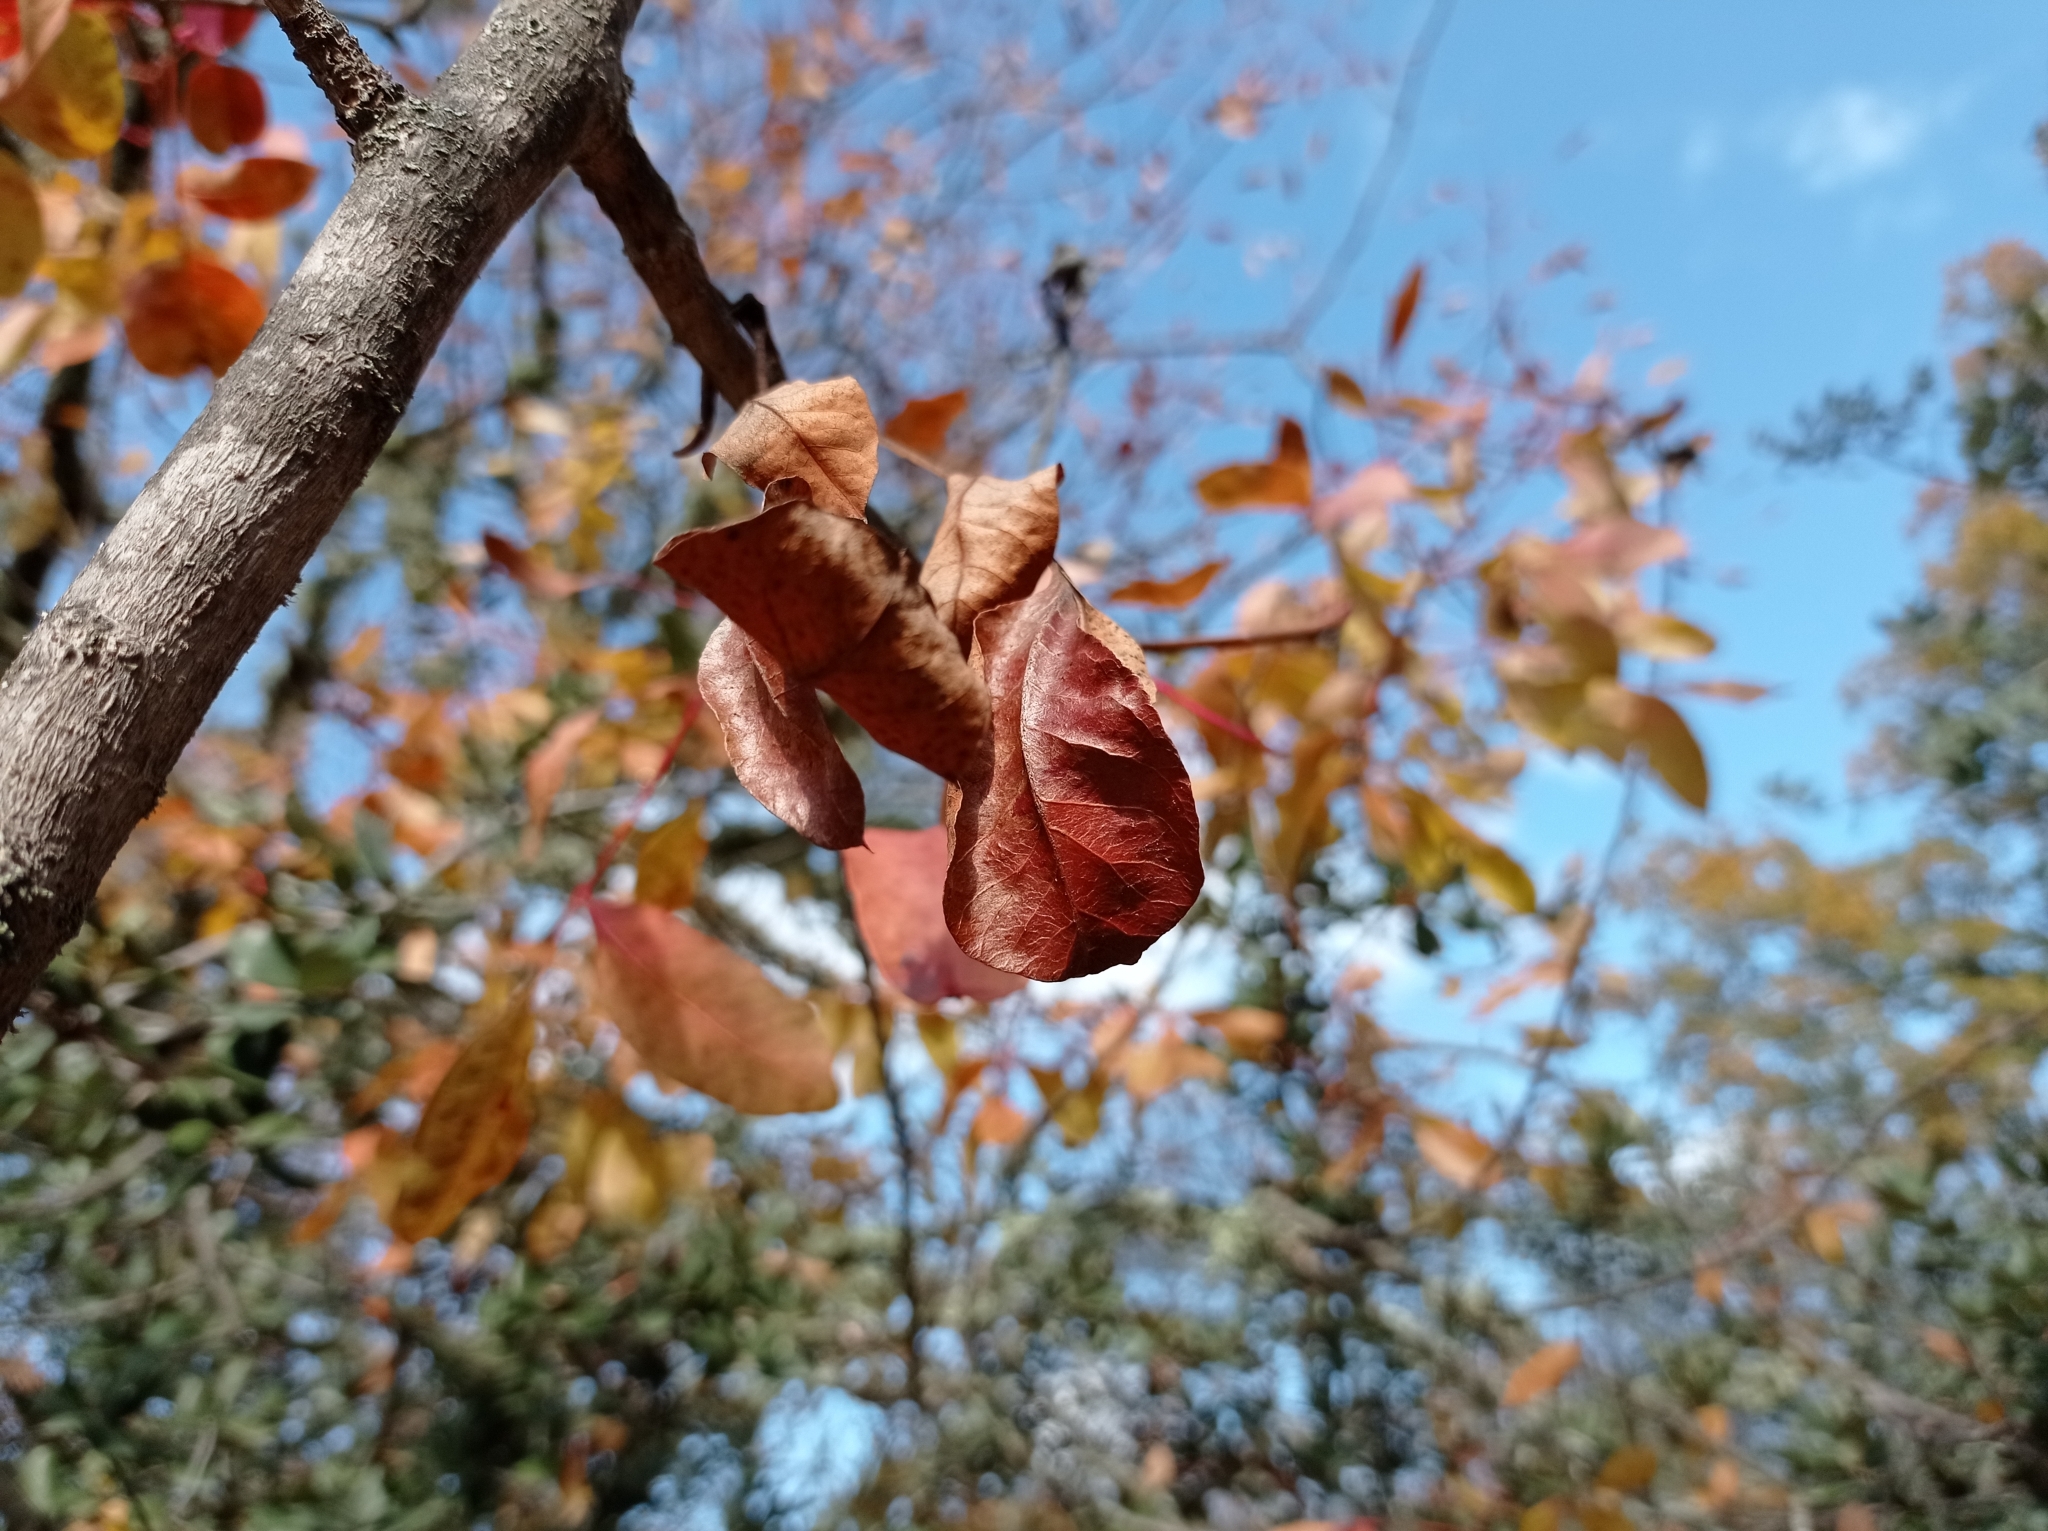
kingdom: Plantae
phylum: Tracheophyta
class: Magnoliopsida
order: Sapindales
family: Anacardiaceae
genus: Pistacia
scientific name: Pistacia terebinthus
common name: Terebinth
